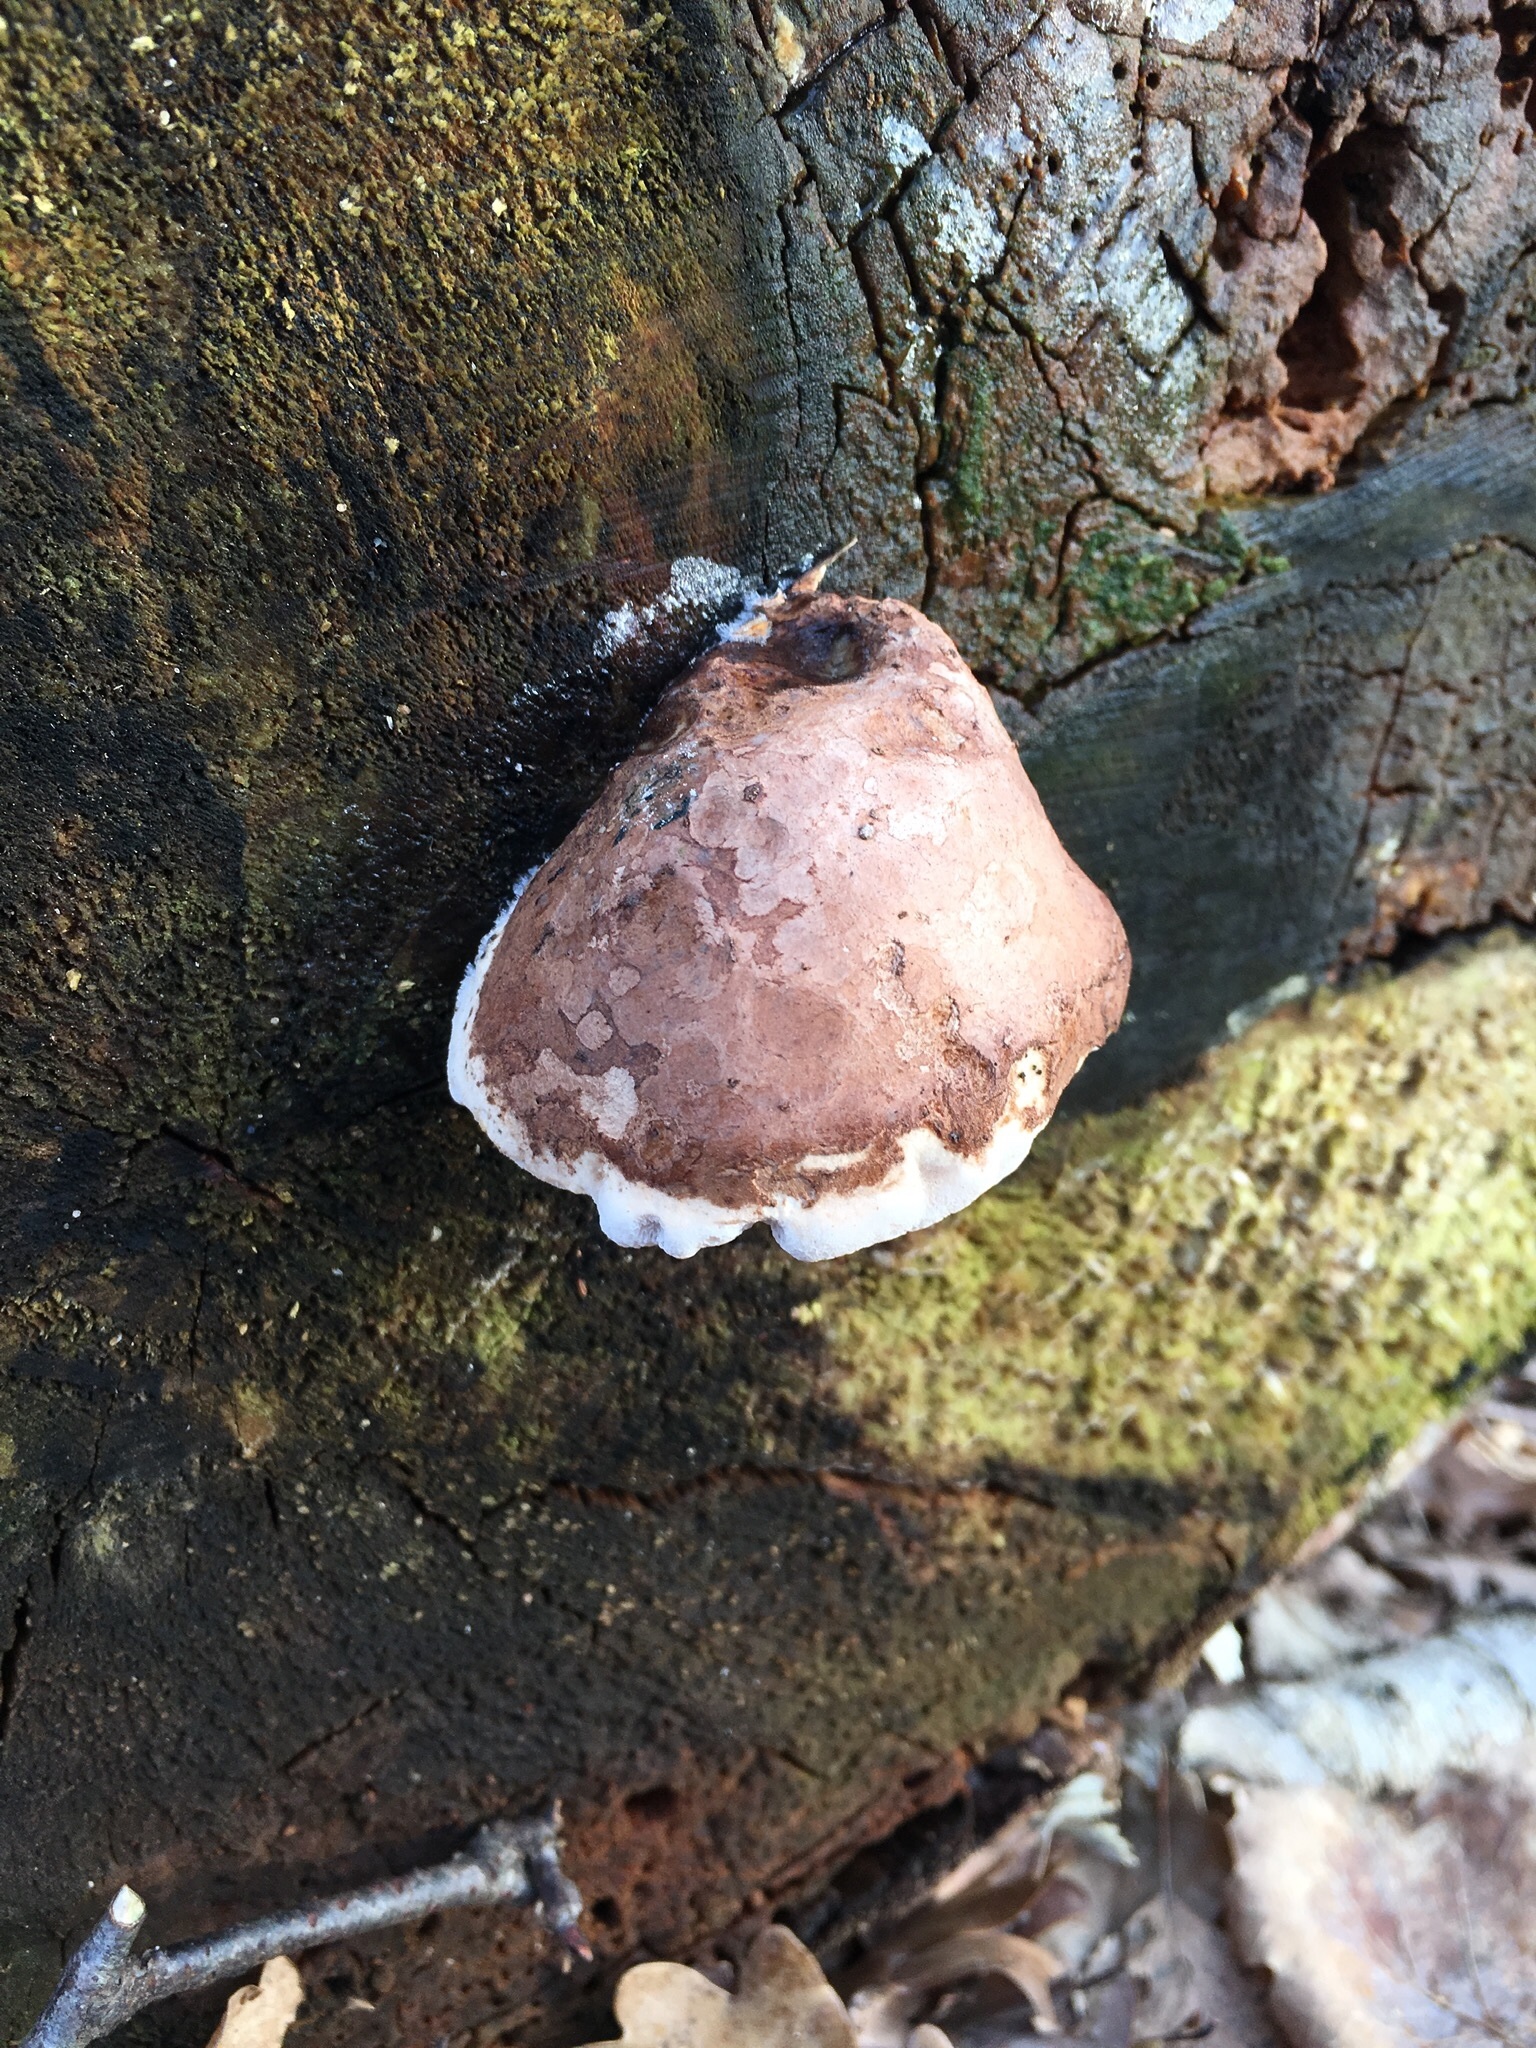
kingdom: Fungi
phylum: Basidiomycota
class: Agaricomycetes
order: Polyporales
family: Fomitopsidaceae
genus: Fomitopsis
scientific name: Fomitopsis betulina
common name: Birch polypore
